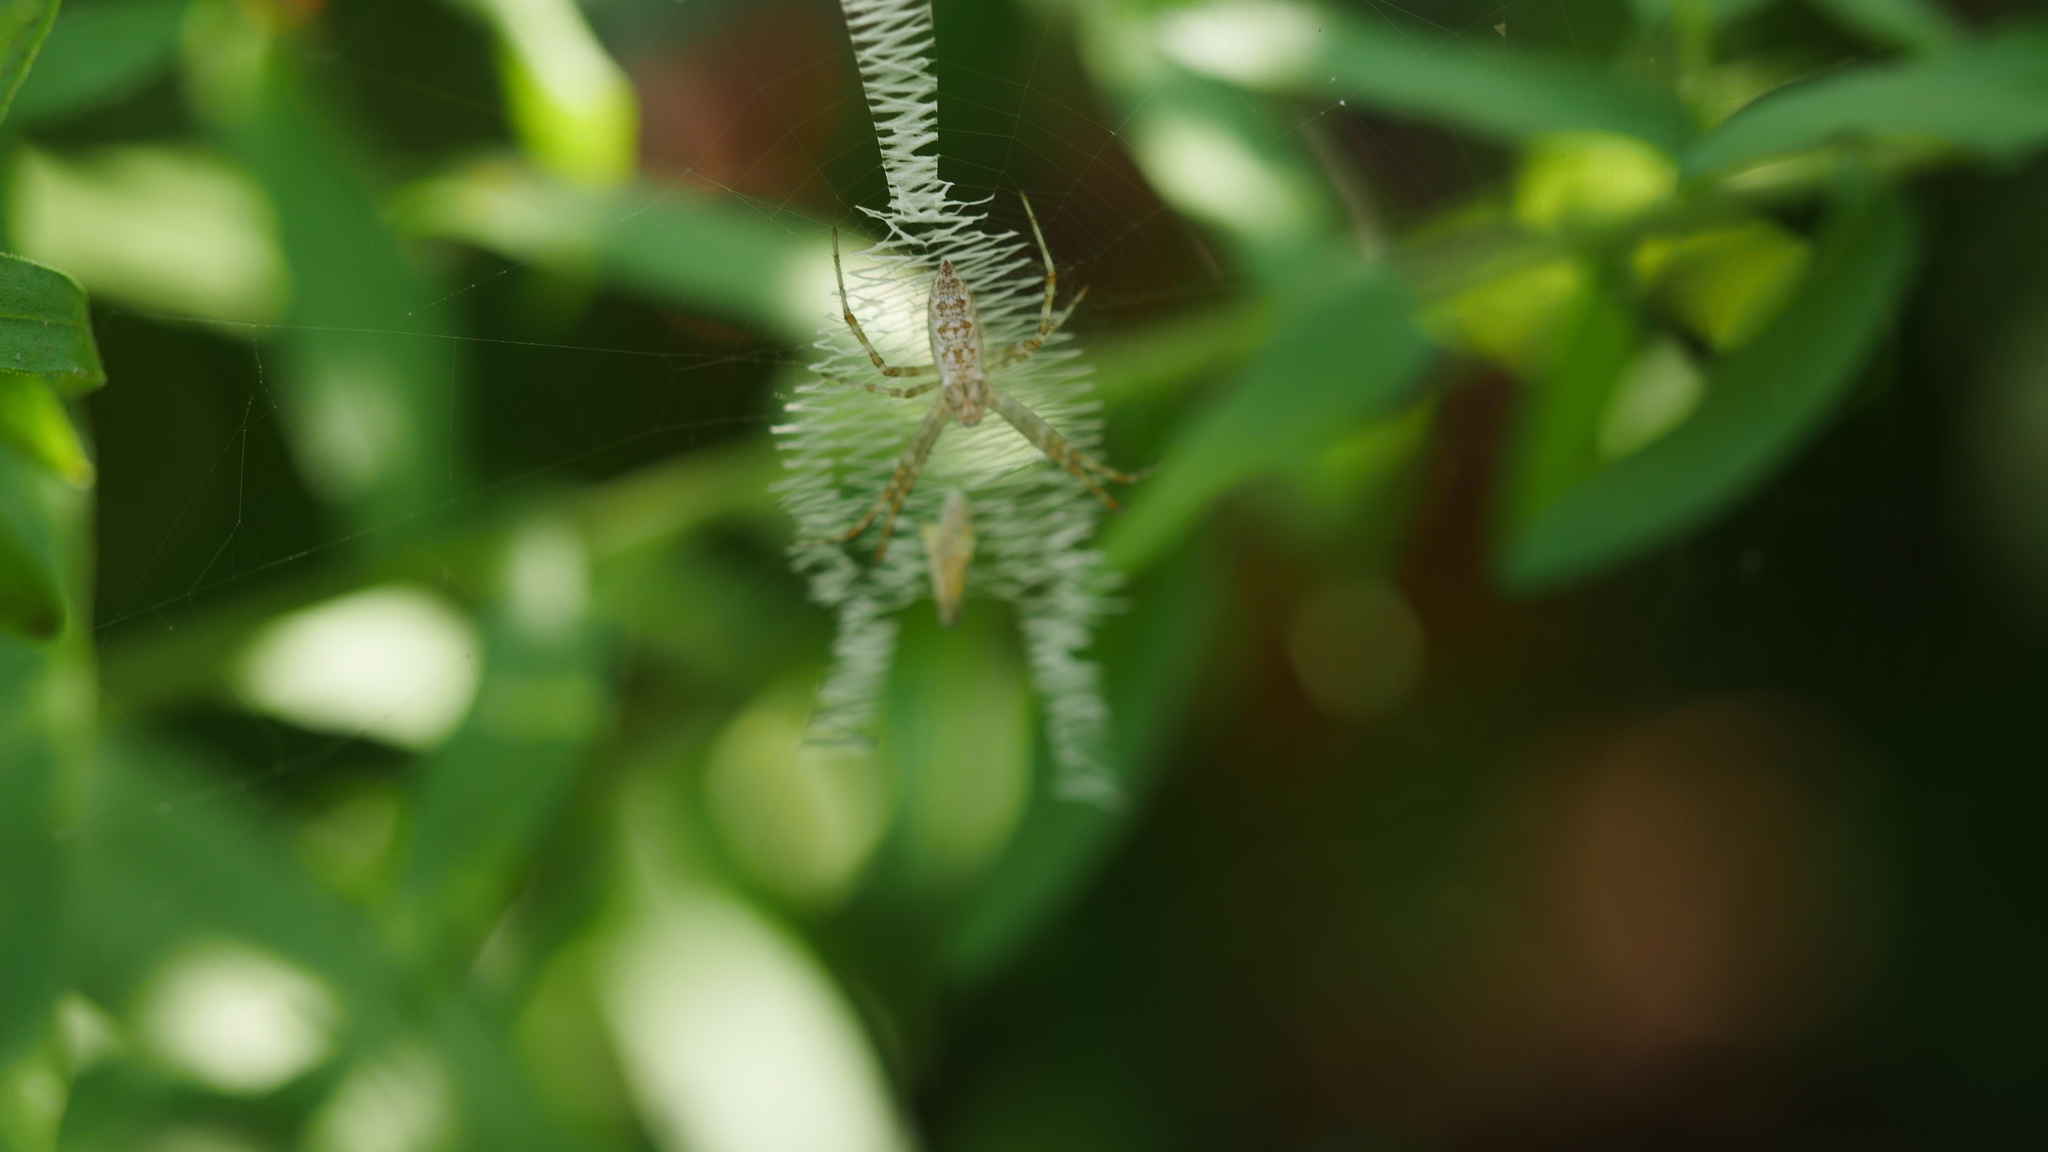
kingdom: Animalia
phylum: Arthropoda
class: Arachnida
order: Araneae
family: Araneidae
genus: Argiope
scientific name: Argiope aurantia
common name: Orb weavers
